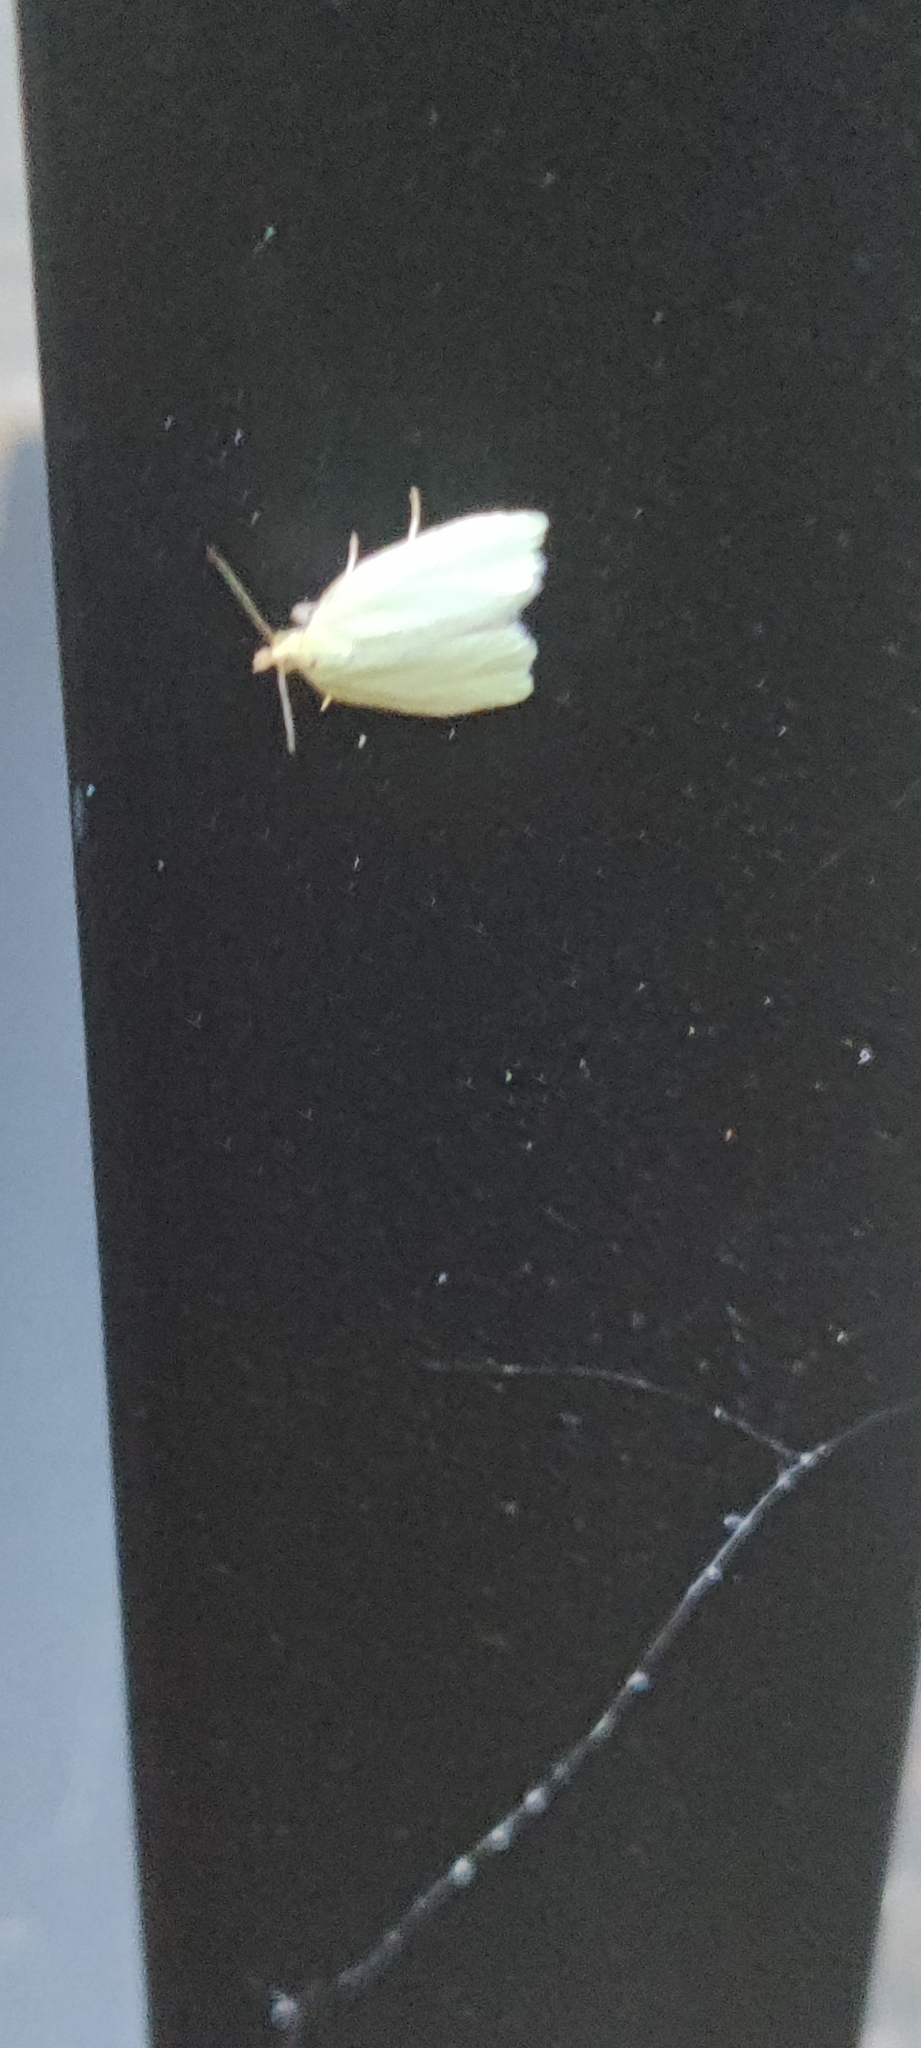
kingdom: Animalia
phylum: Arthropoda
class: Insecta
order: Lepidoptera
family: Tortricidae
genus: Tortrix
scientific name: Tortrix viridana
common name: Green oak tortrix
